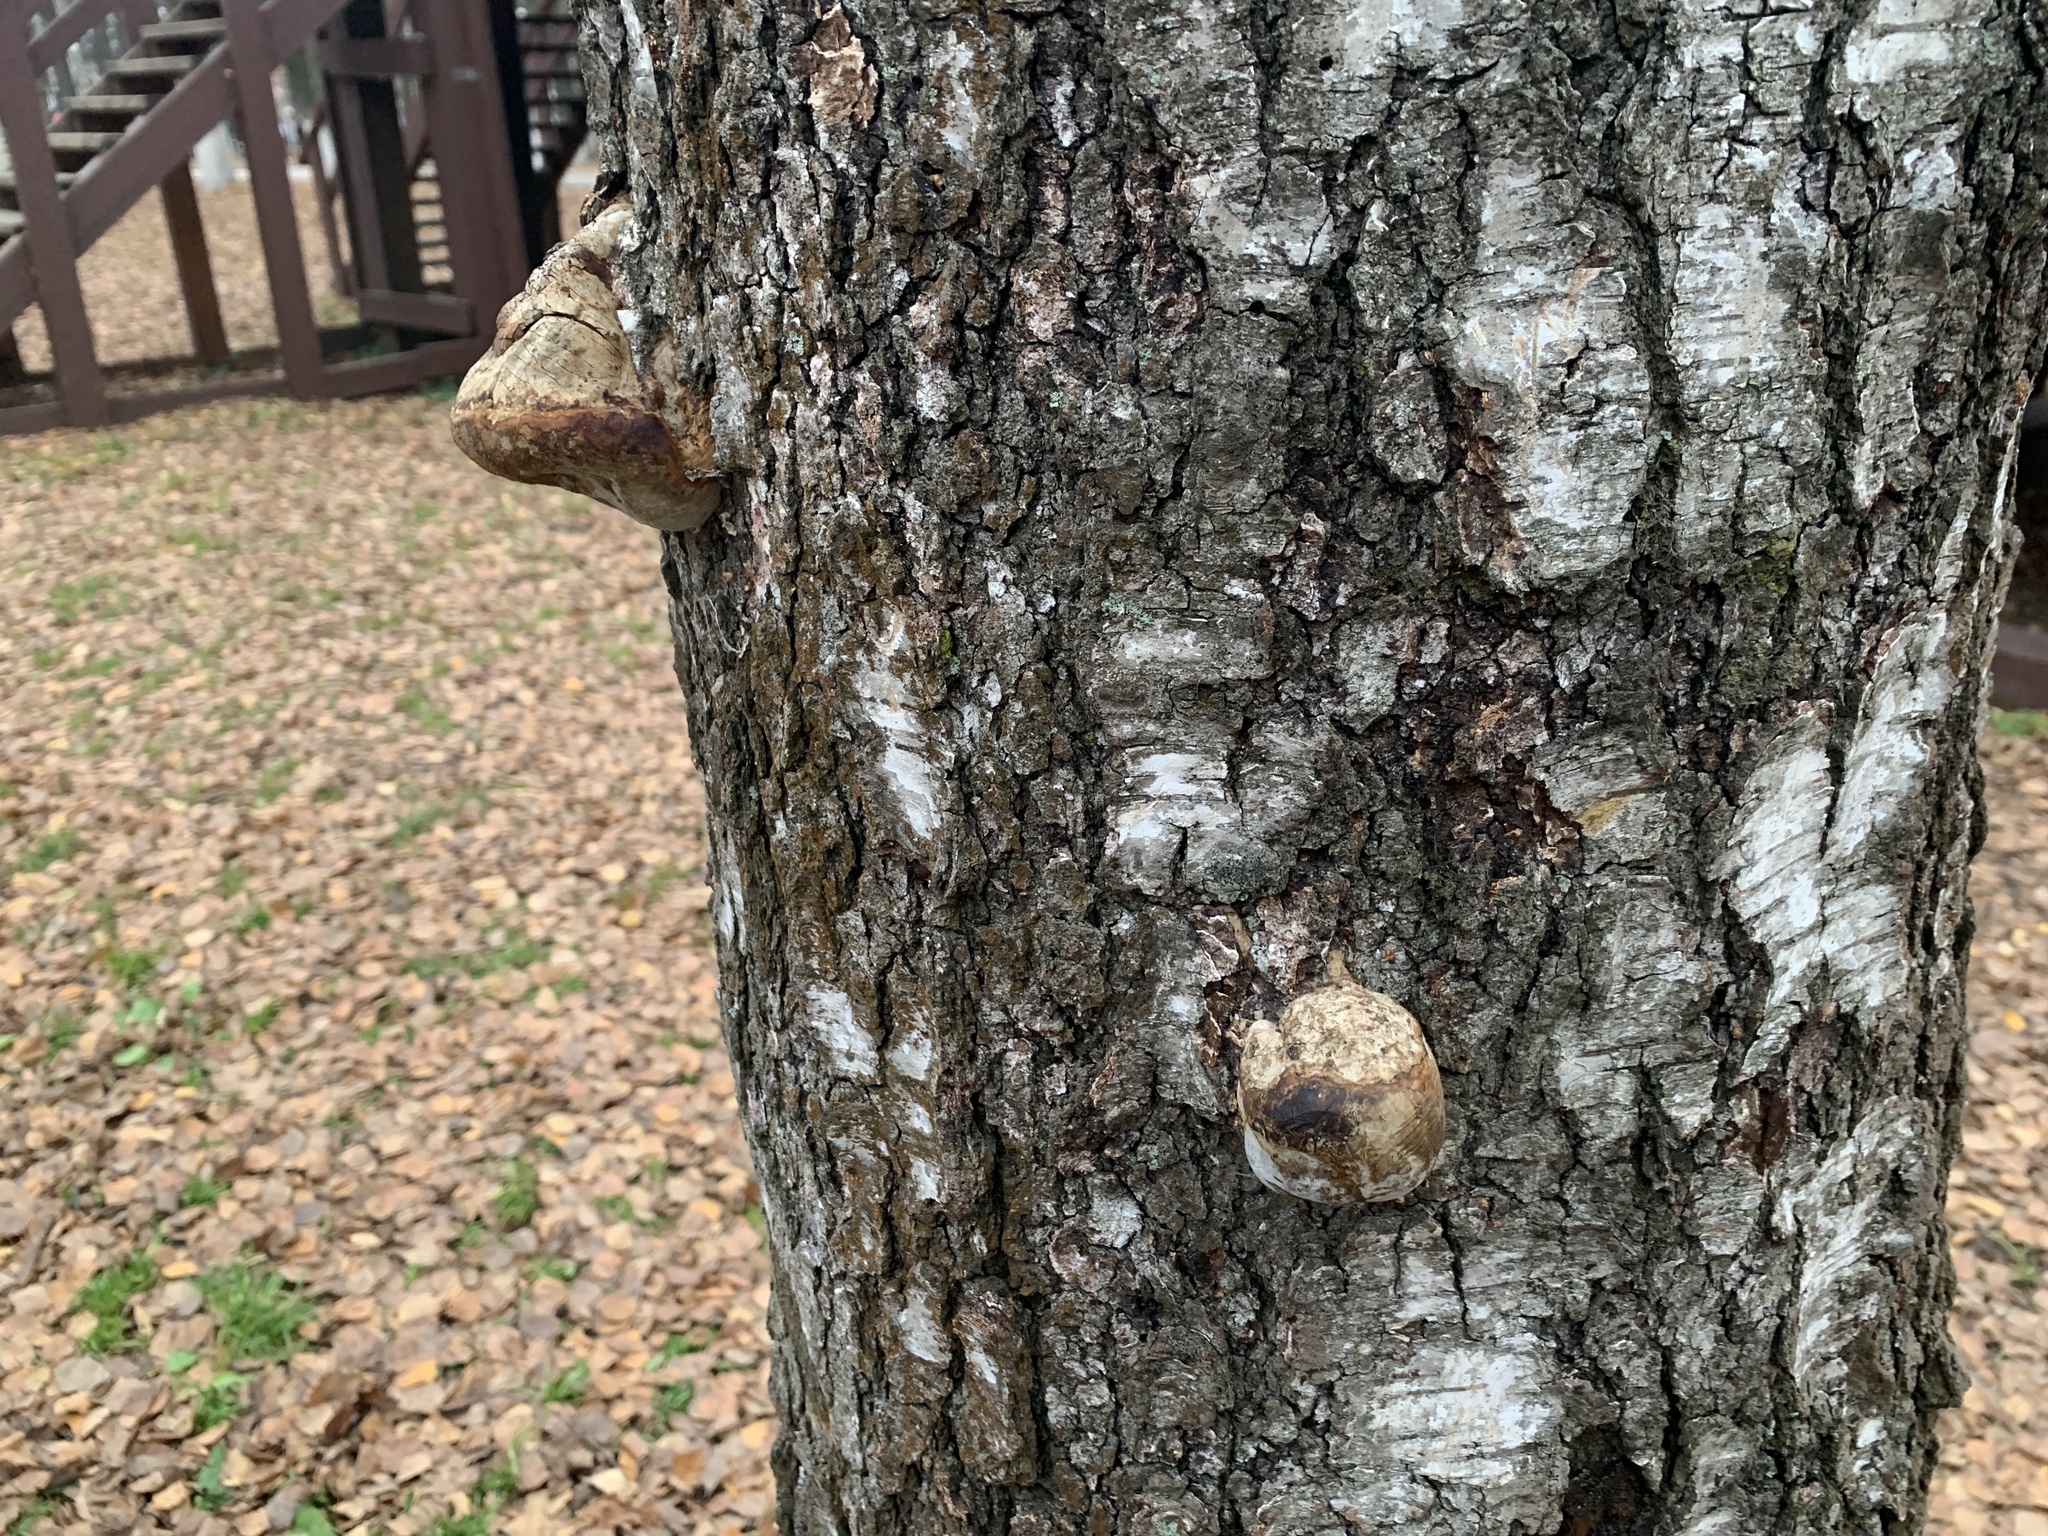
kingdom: Fungi
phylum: Basidiomycota
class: Agaricomycetes
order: Polyporales
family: Polyporaceae
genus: Fomes
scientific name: Fomes fomentarius
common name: Hoof fungus
